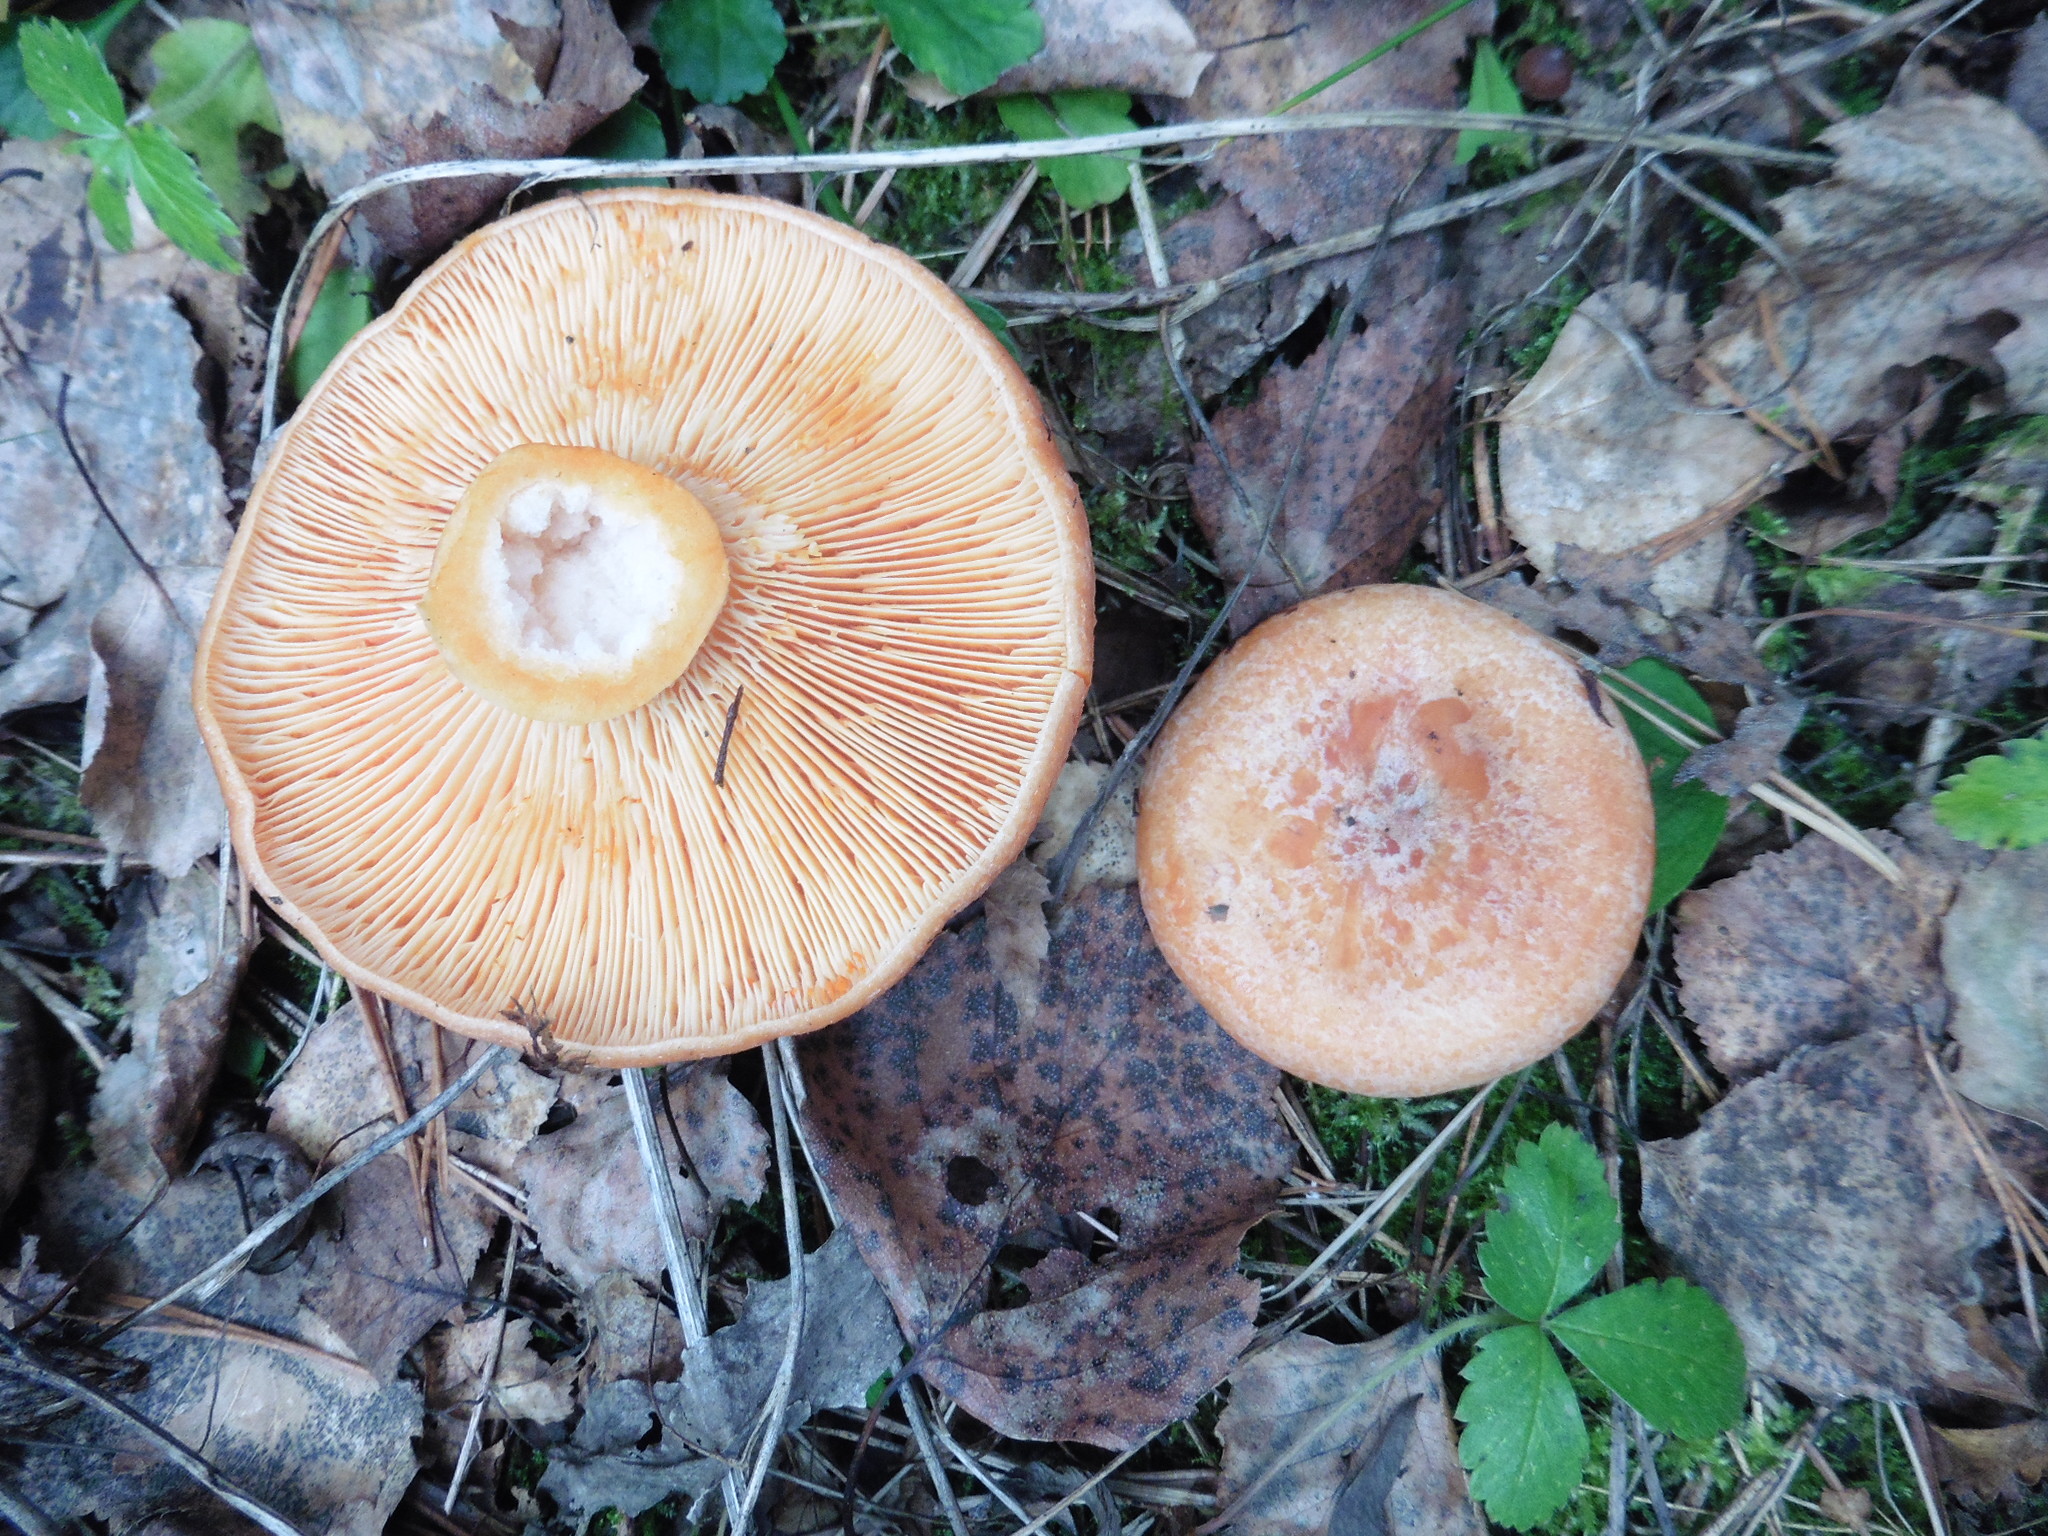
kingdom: Fungi
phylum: Basidiomycota
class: Agaricomycetes
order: Russulales
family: Russulaceae
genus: Lactarius
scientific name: Lactarius deliciosus
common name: Saffron milk-cap
